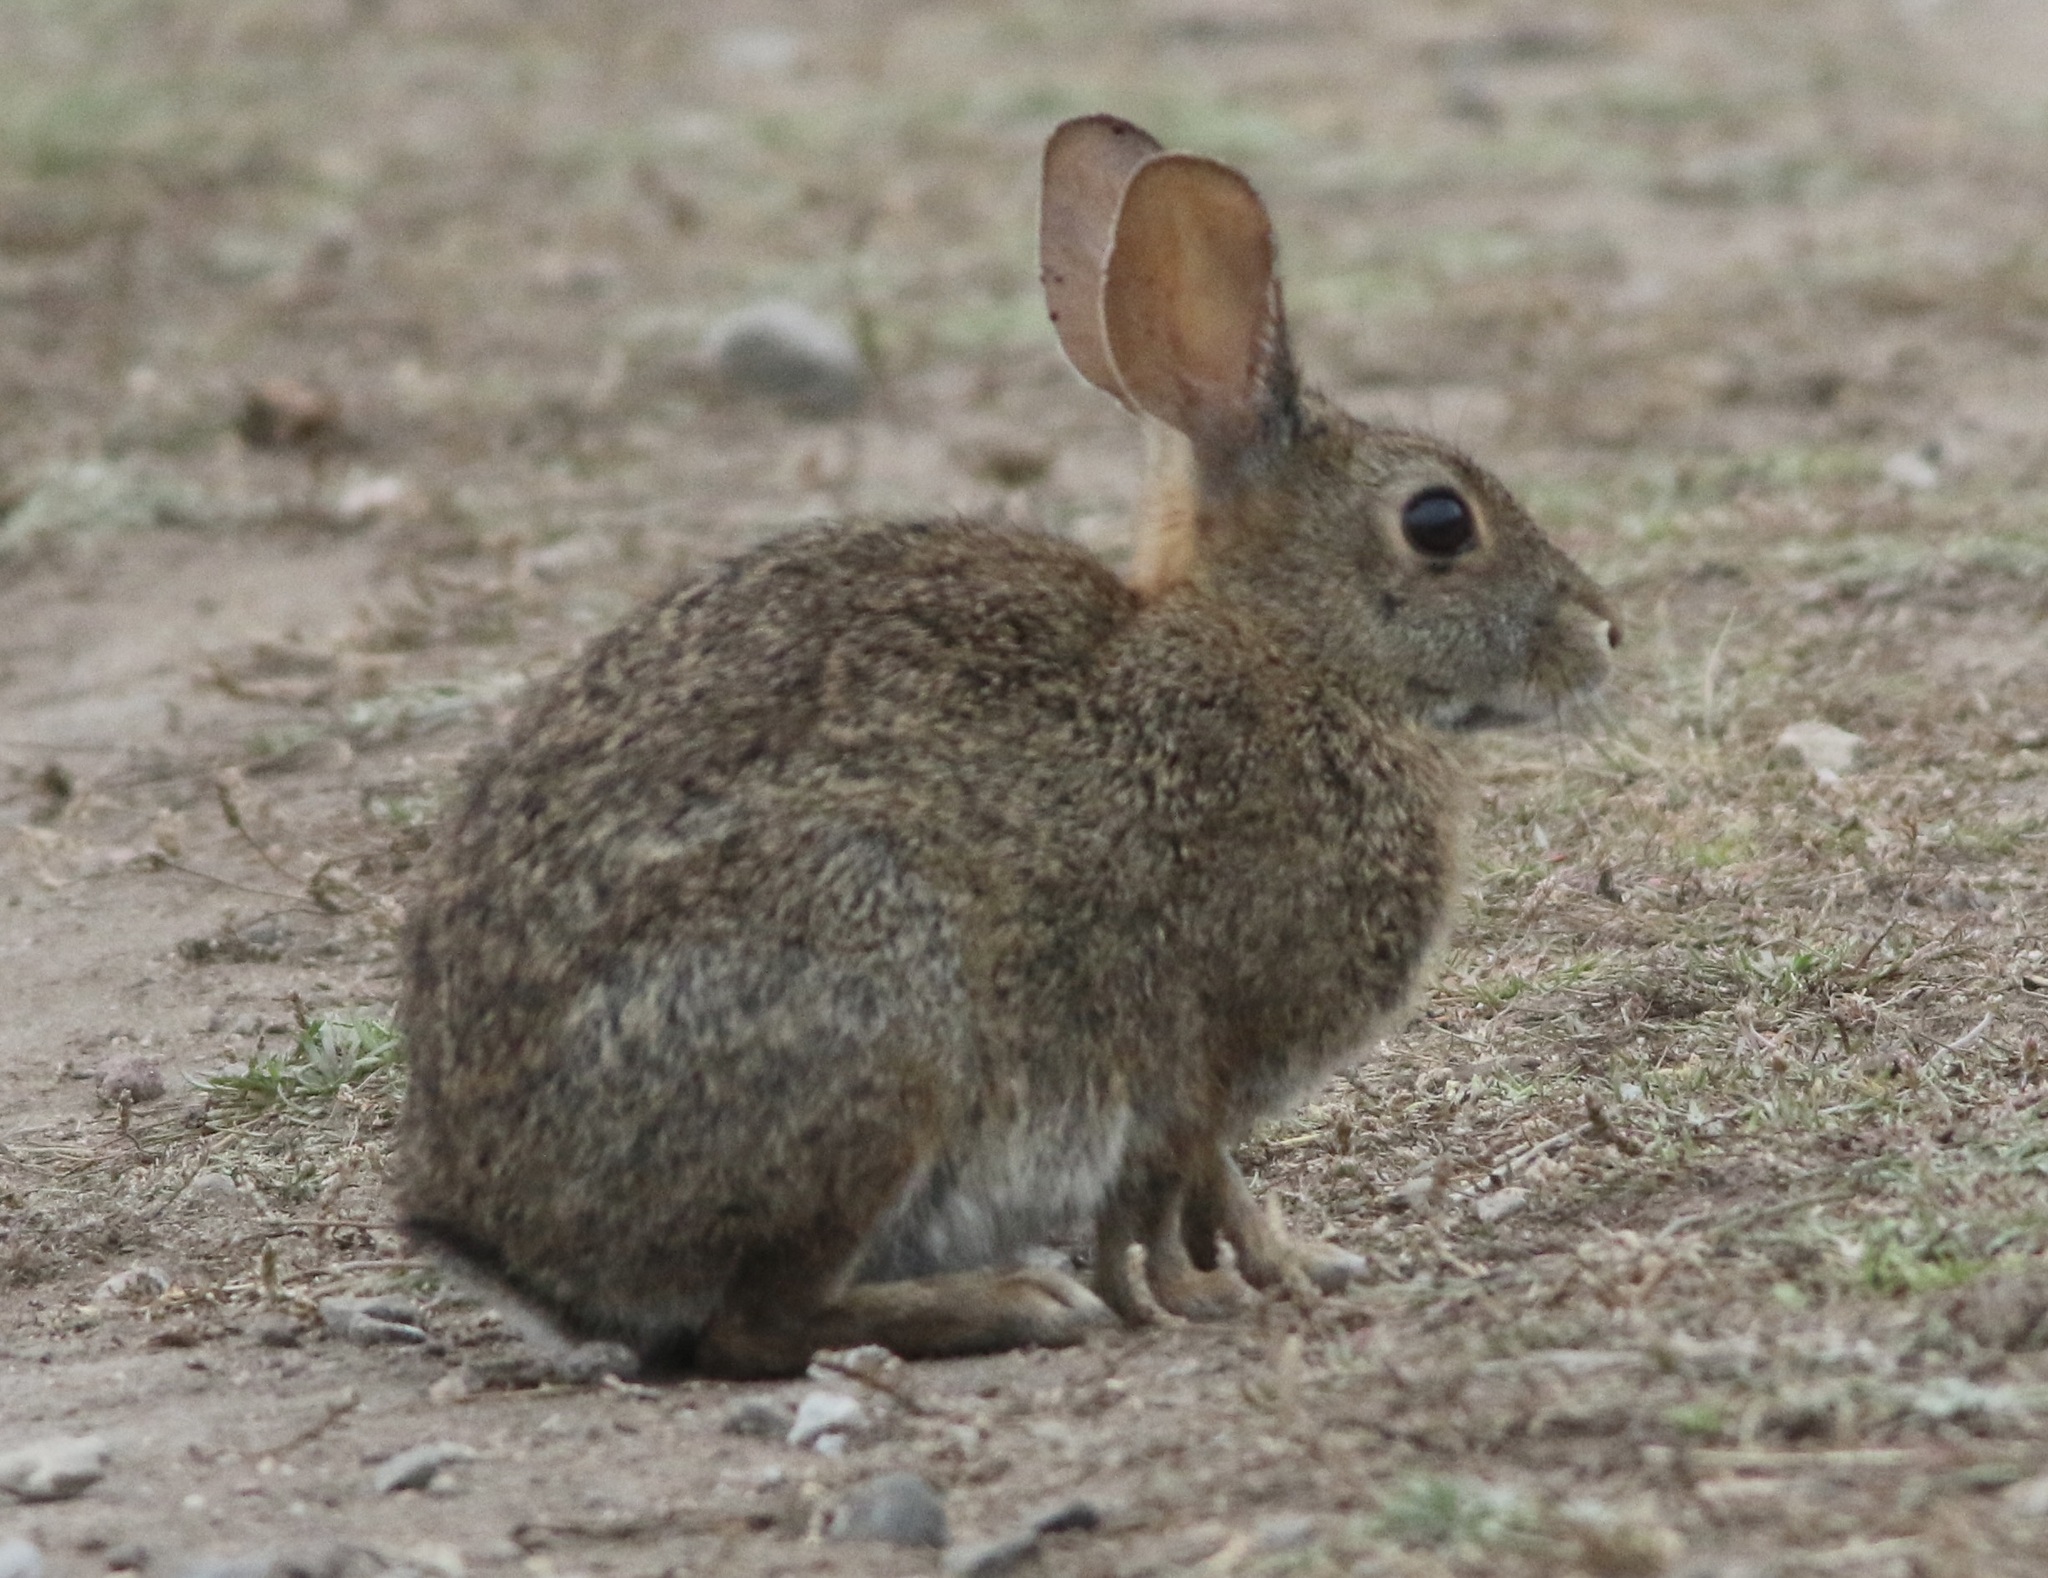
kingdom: Animalia
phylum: Chordata
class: Mammalia
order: Lagomorpha
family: Leporidae
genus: Sylvilagus
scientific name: Sylvilagus bachmani
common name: Brush rabbit
